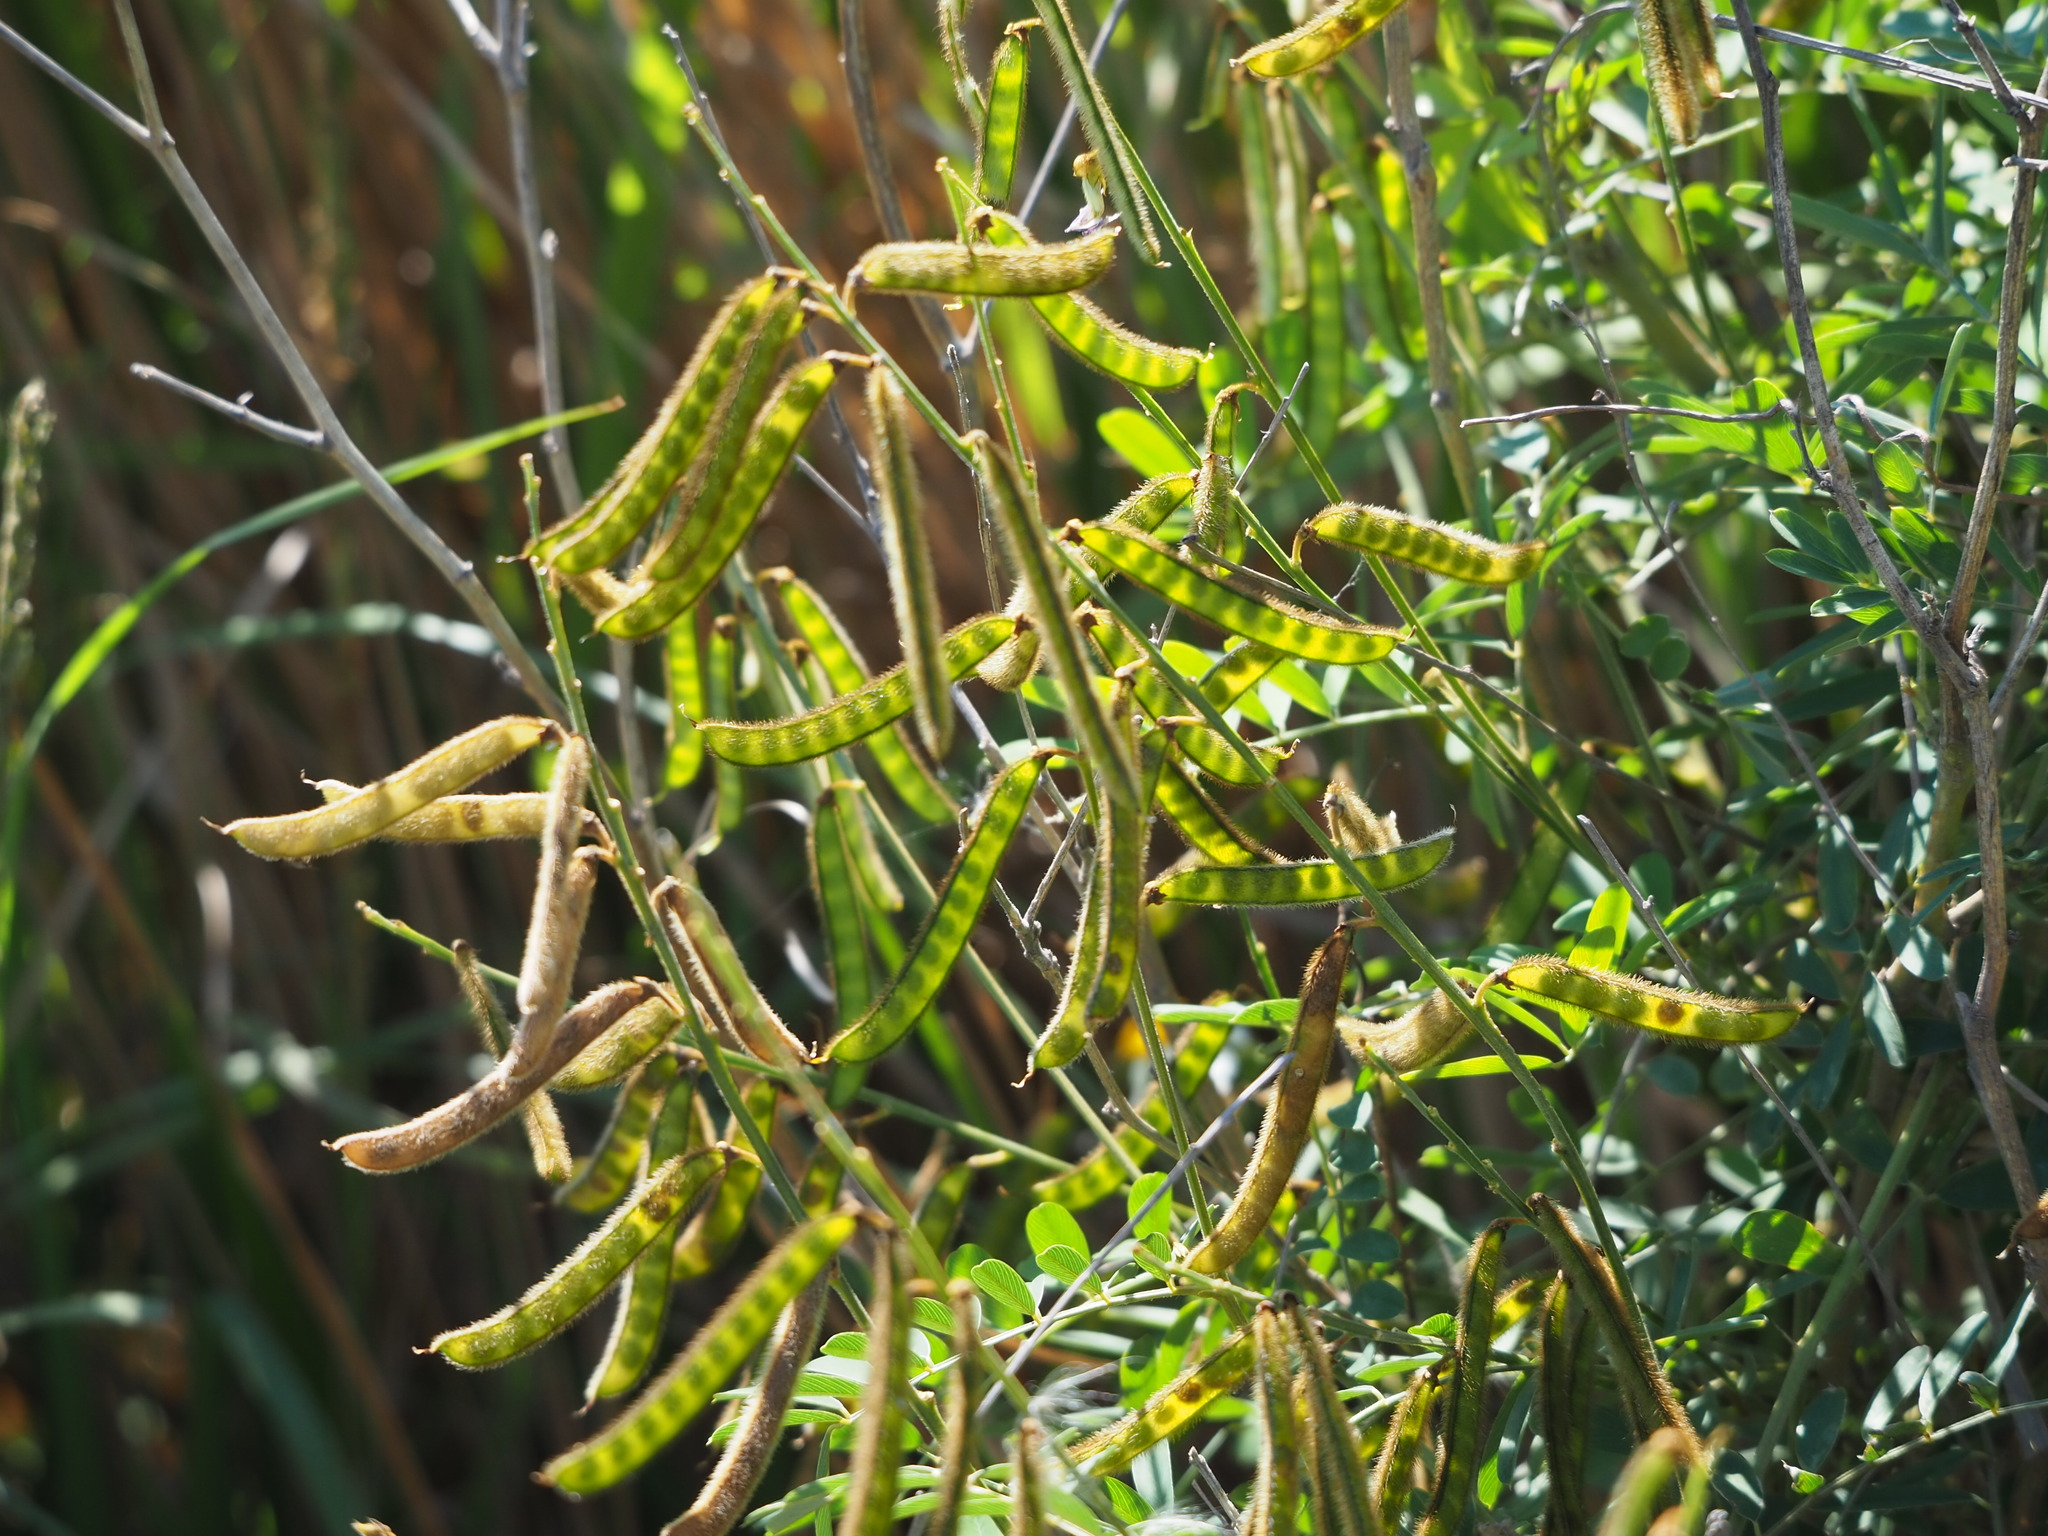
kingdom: Plantae
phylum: Tracheophyta
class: Magnoliopsida
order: Fabales
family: Fabaceae
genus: Tephrosia
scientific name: Tephrosia noctiflora
